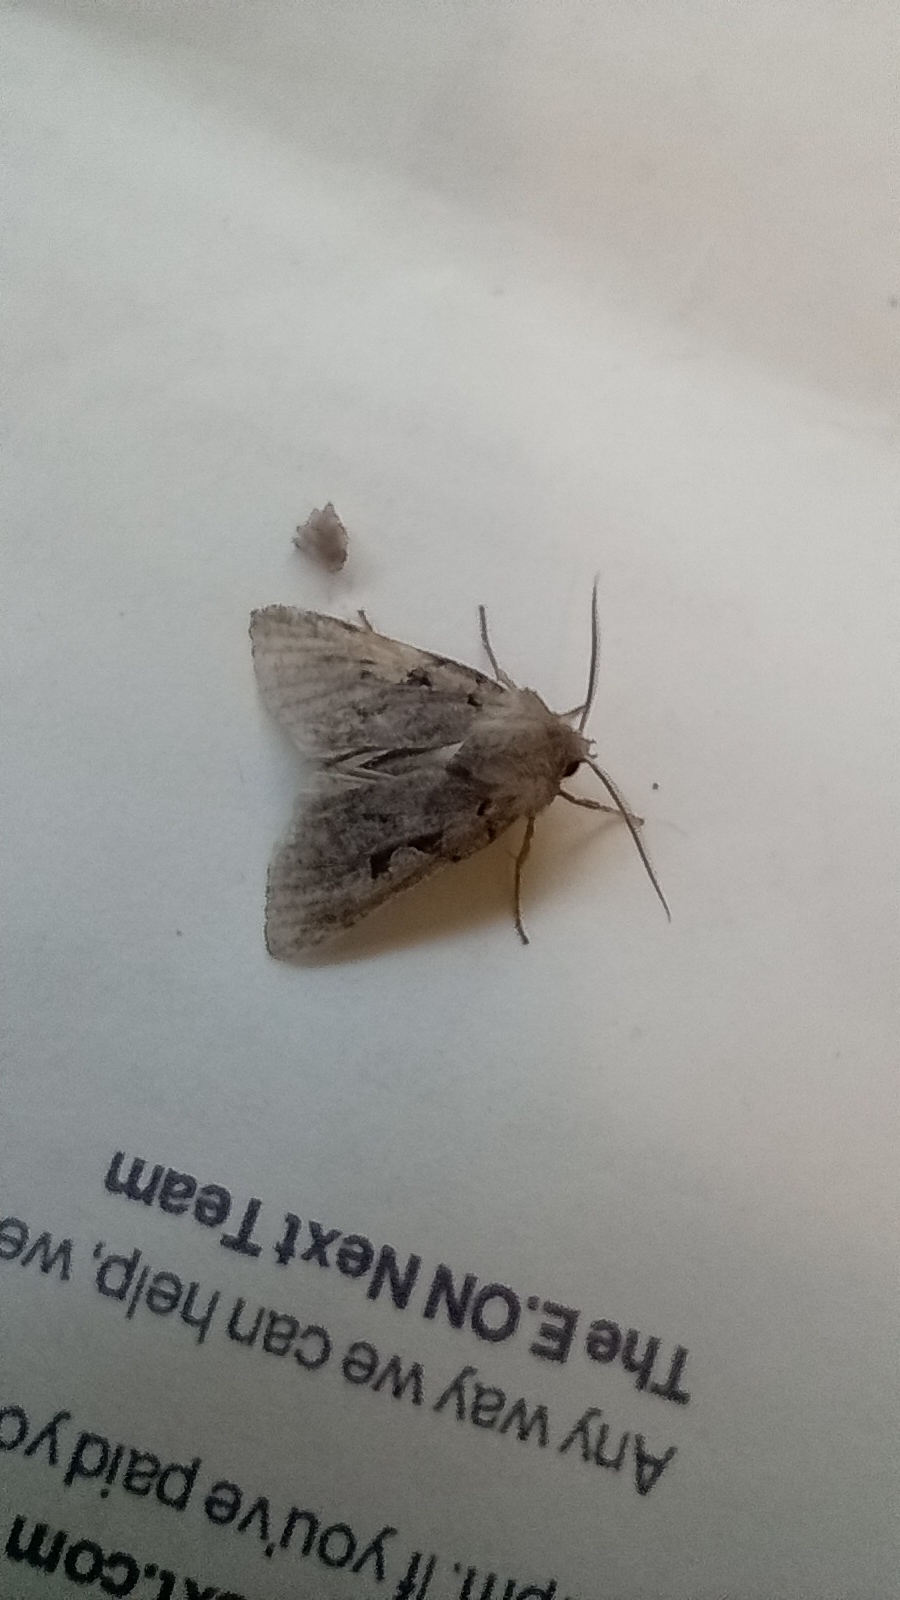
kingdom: Animalia
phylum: Arthropoda
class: Insecta
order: Lepidoptera
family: Noctuidae
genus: Orthosia
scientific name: Orthosia gothica
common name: Hebrew character
